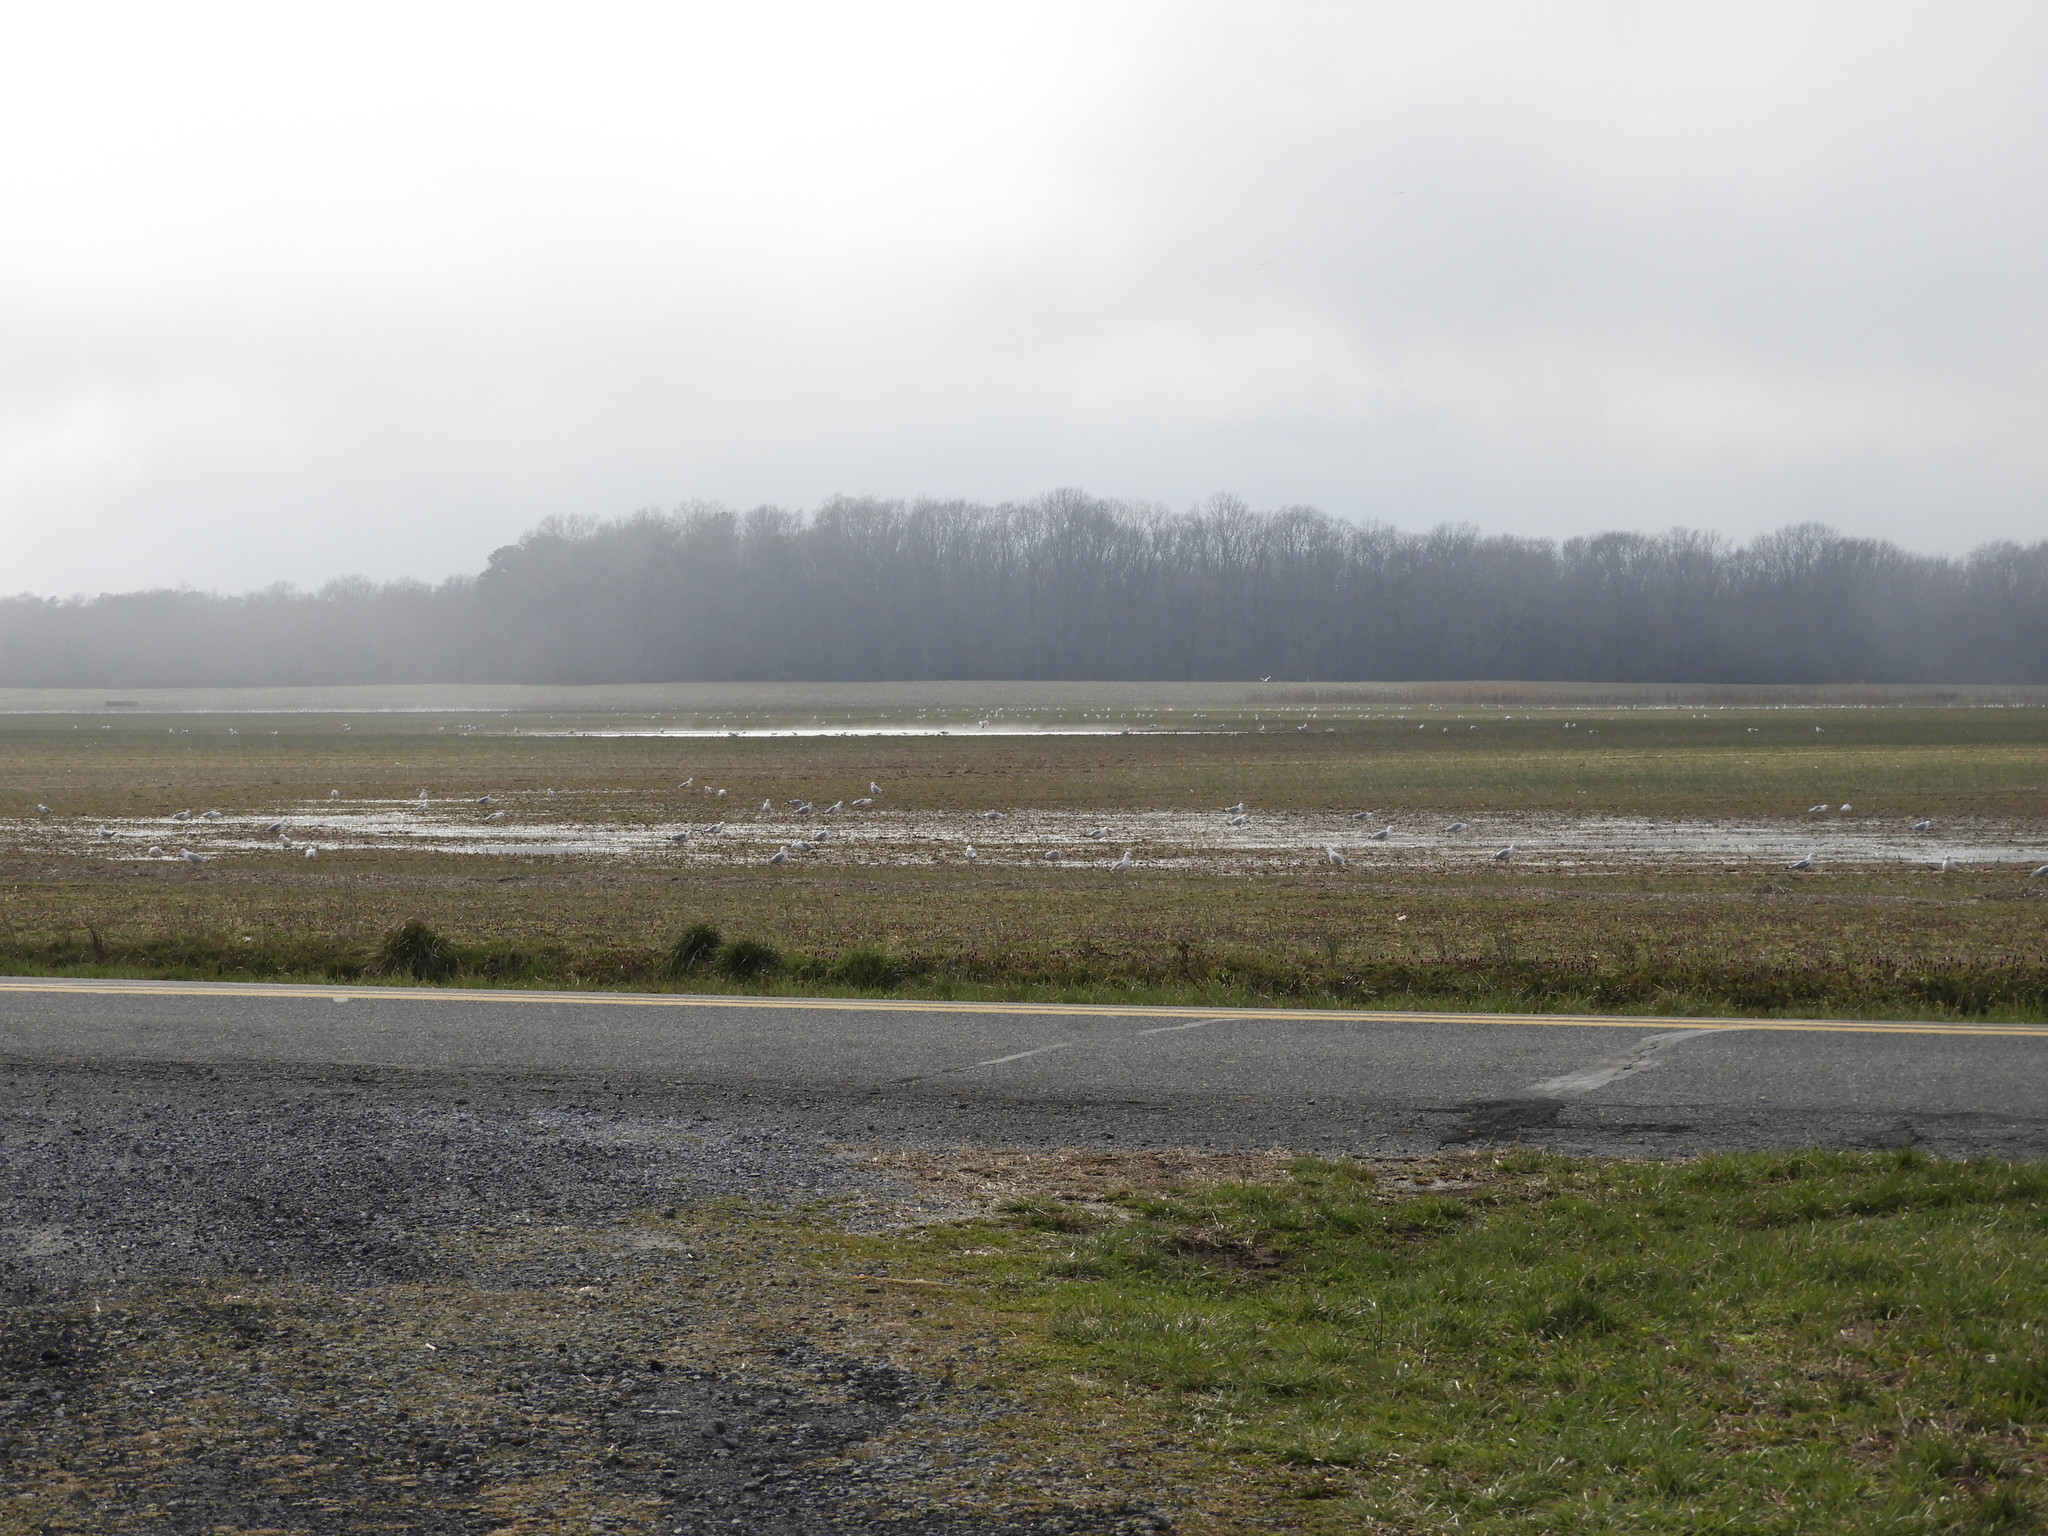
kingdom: Animalia
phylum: Chordata
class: Aves
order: Charadriiformes
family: Laridae
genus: Larus
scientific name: Larus delawarensis
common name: Ring-billed gull
